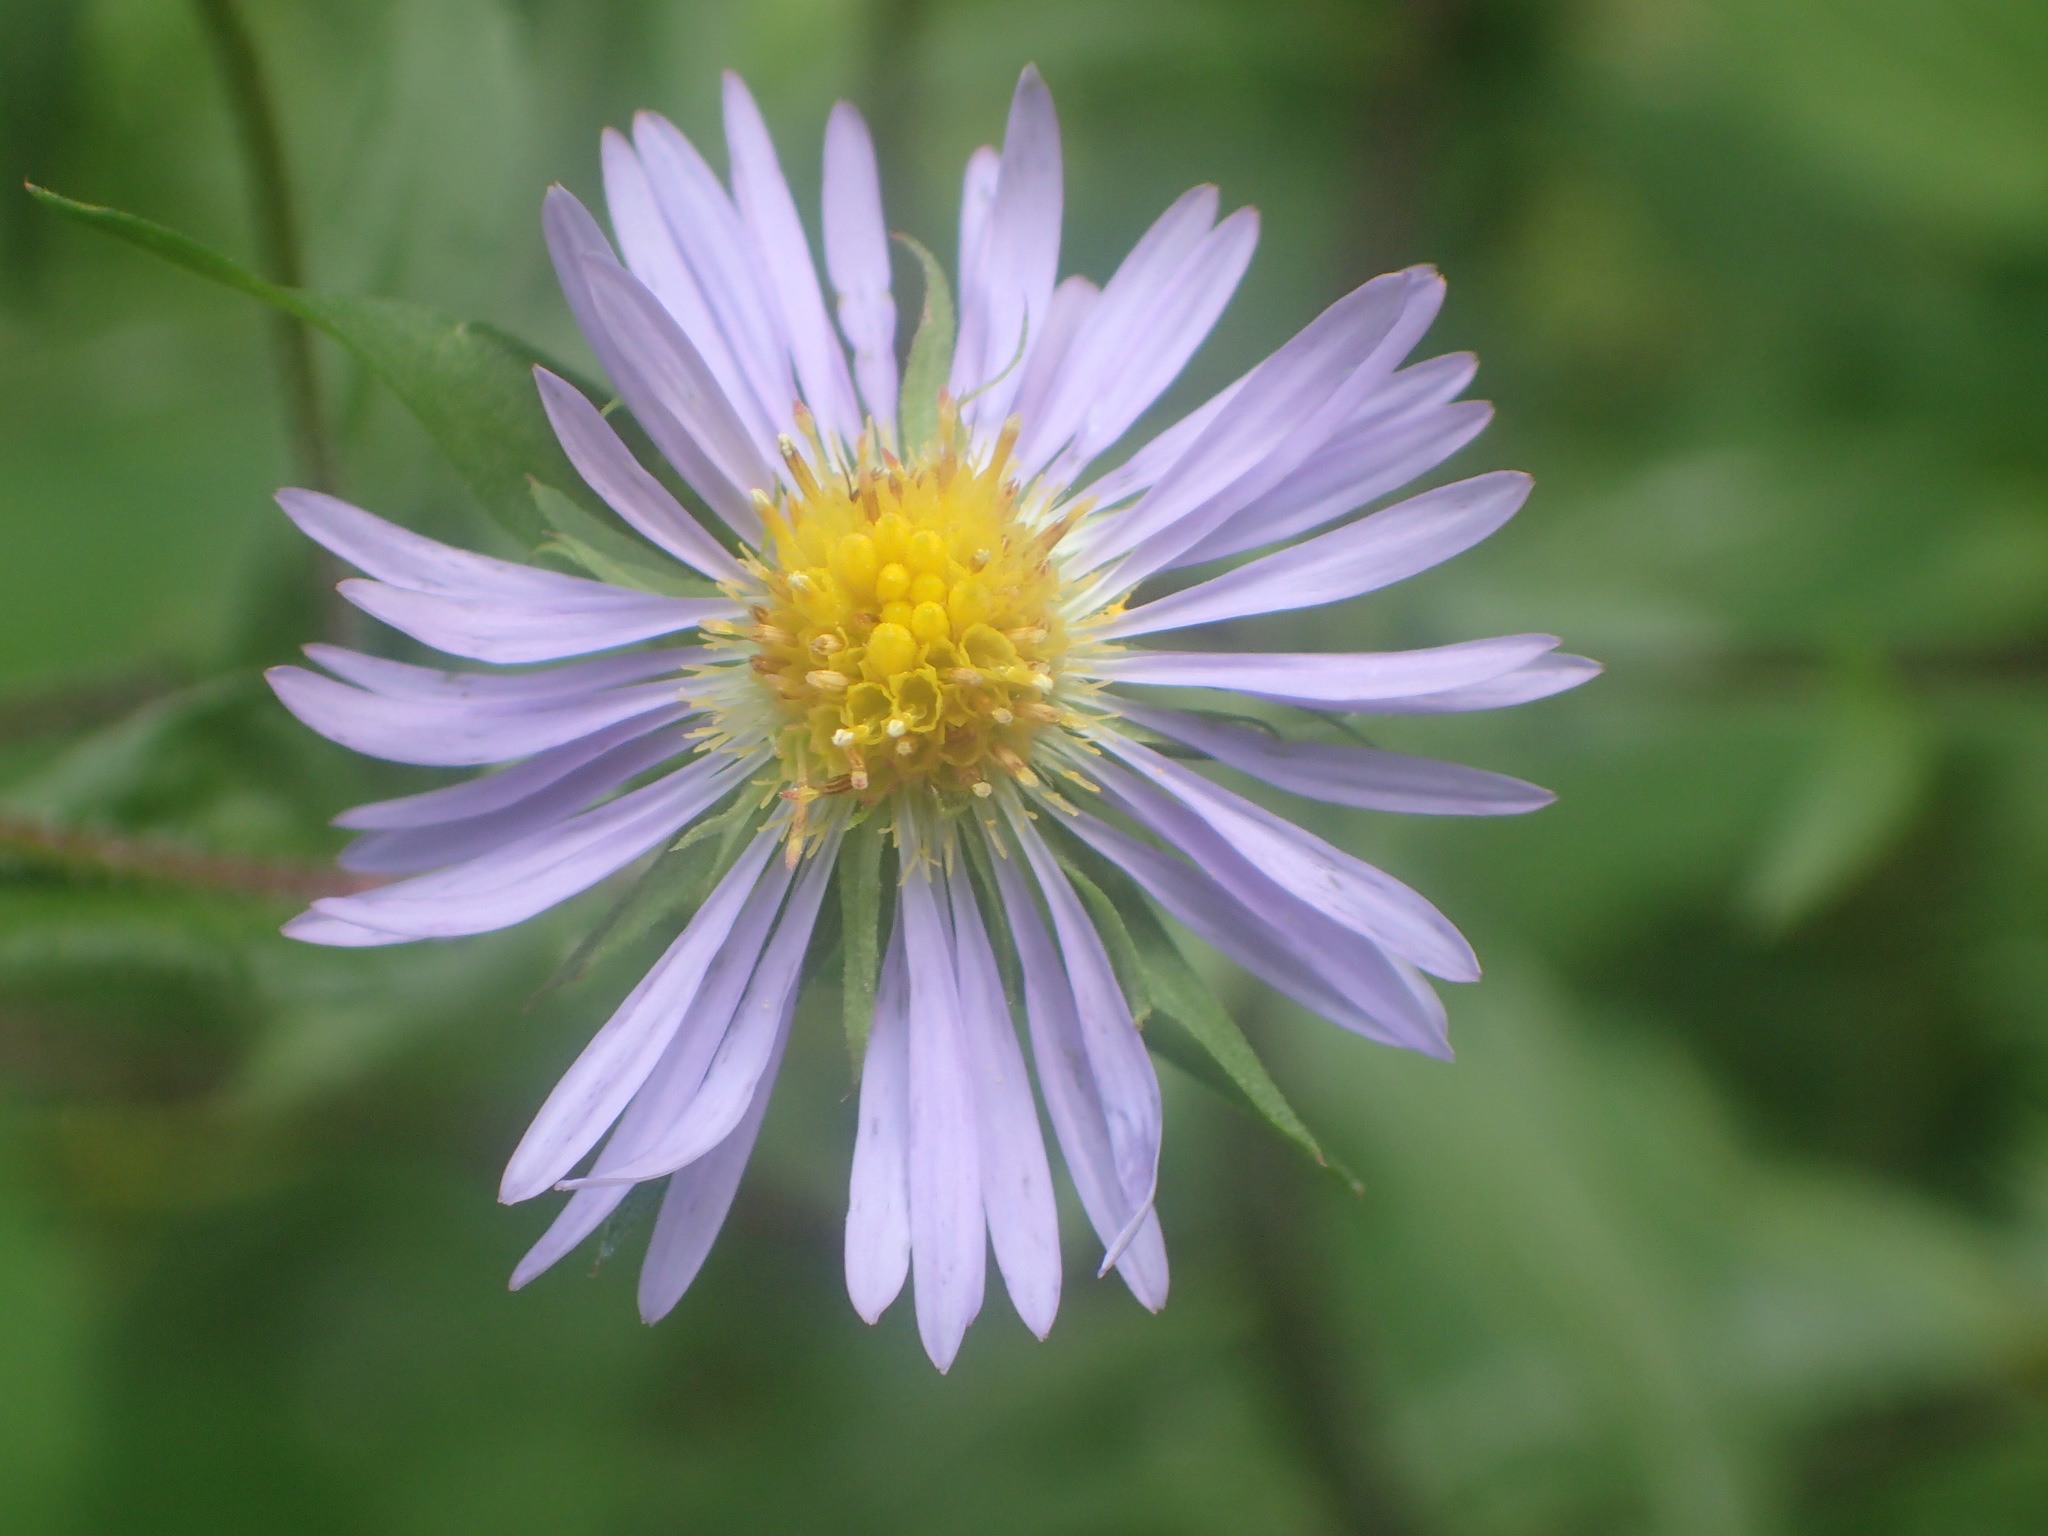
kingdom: Plantae
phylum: Tracheophyta
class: Magnoliopsida
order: Asterales
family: Asteraceae
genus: Symphyotrichum
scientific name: Symphyotrichum puniceum
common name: Bog aster
